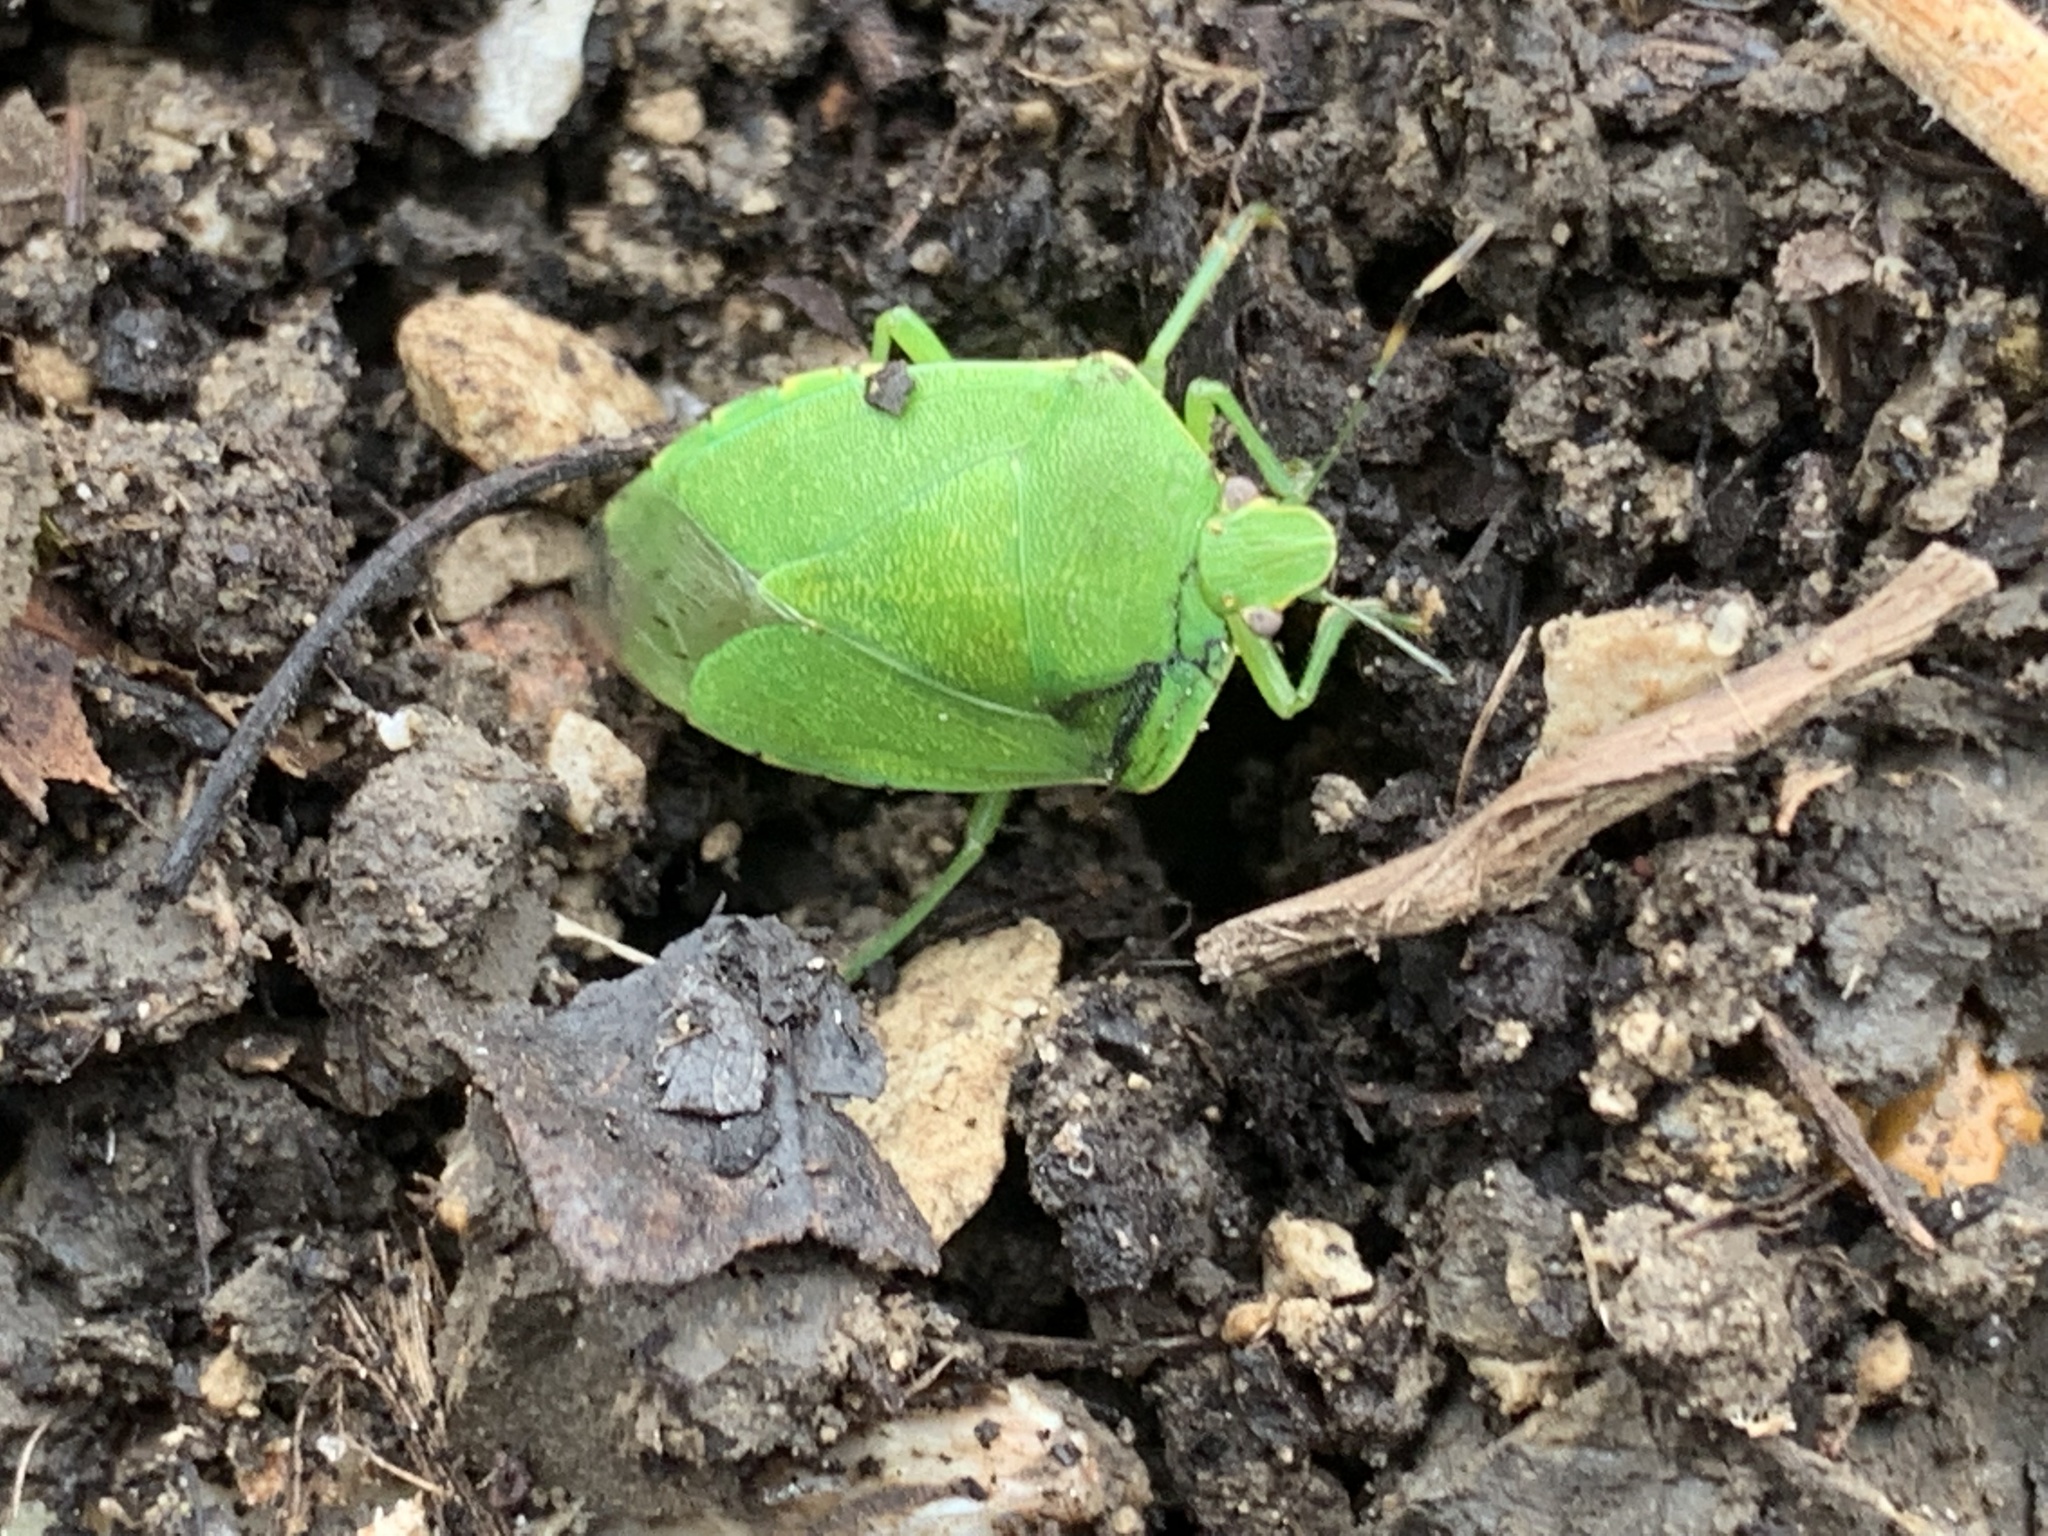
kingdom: Animalia
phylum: Arthropoda
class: Insecta
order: Hemiptera
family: Pentatomidae
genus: Chinavia
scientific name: Chinavia hilaris
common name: Green stink bug
